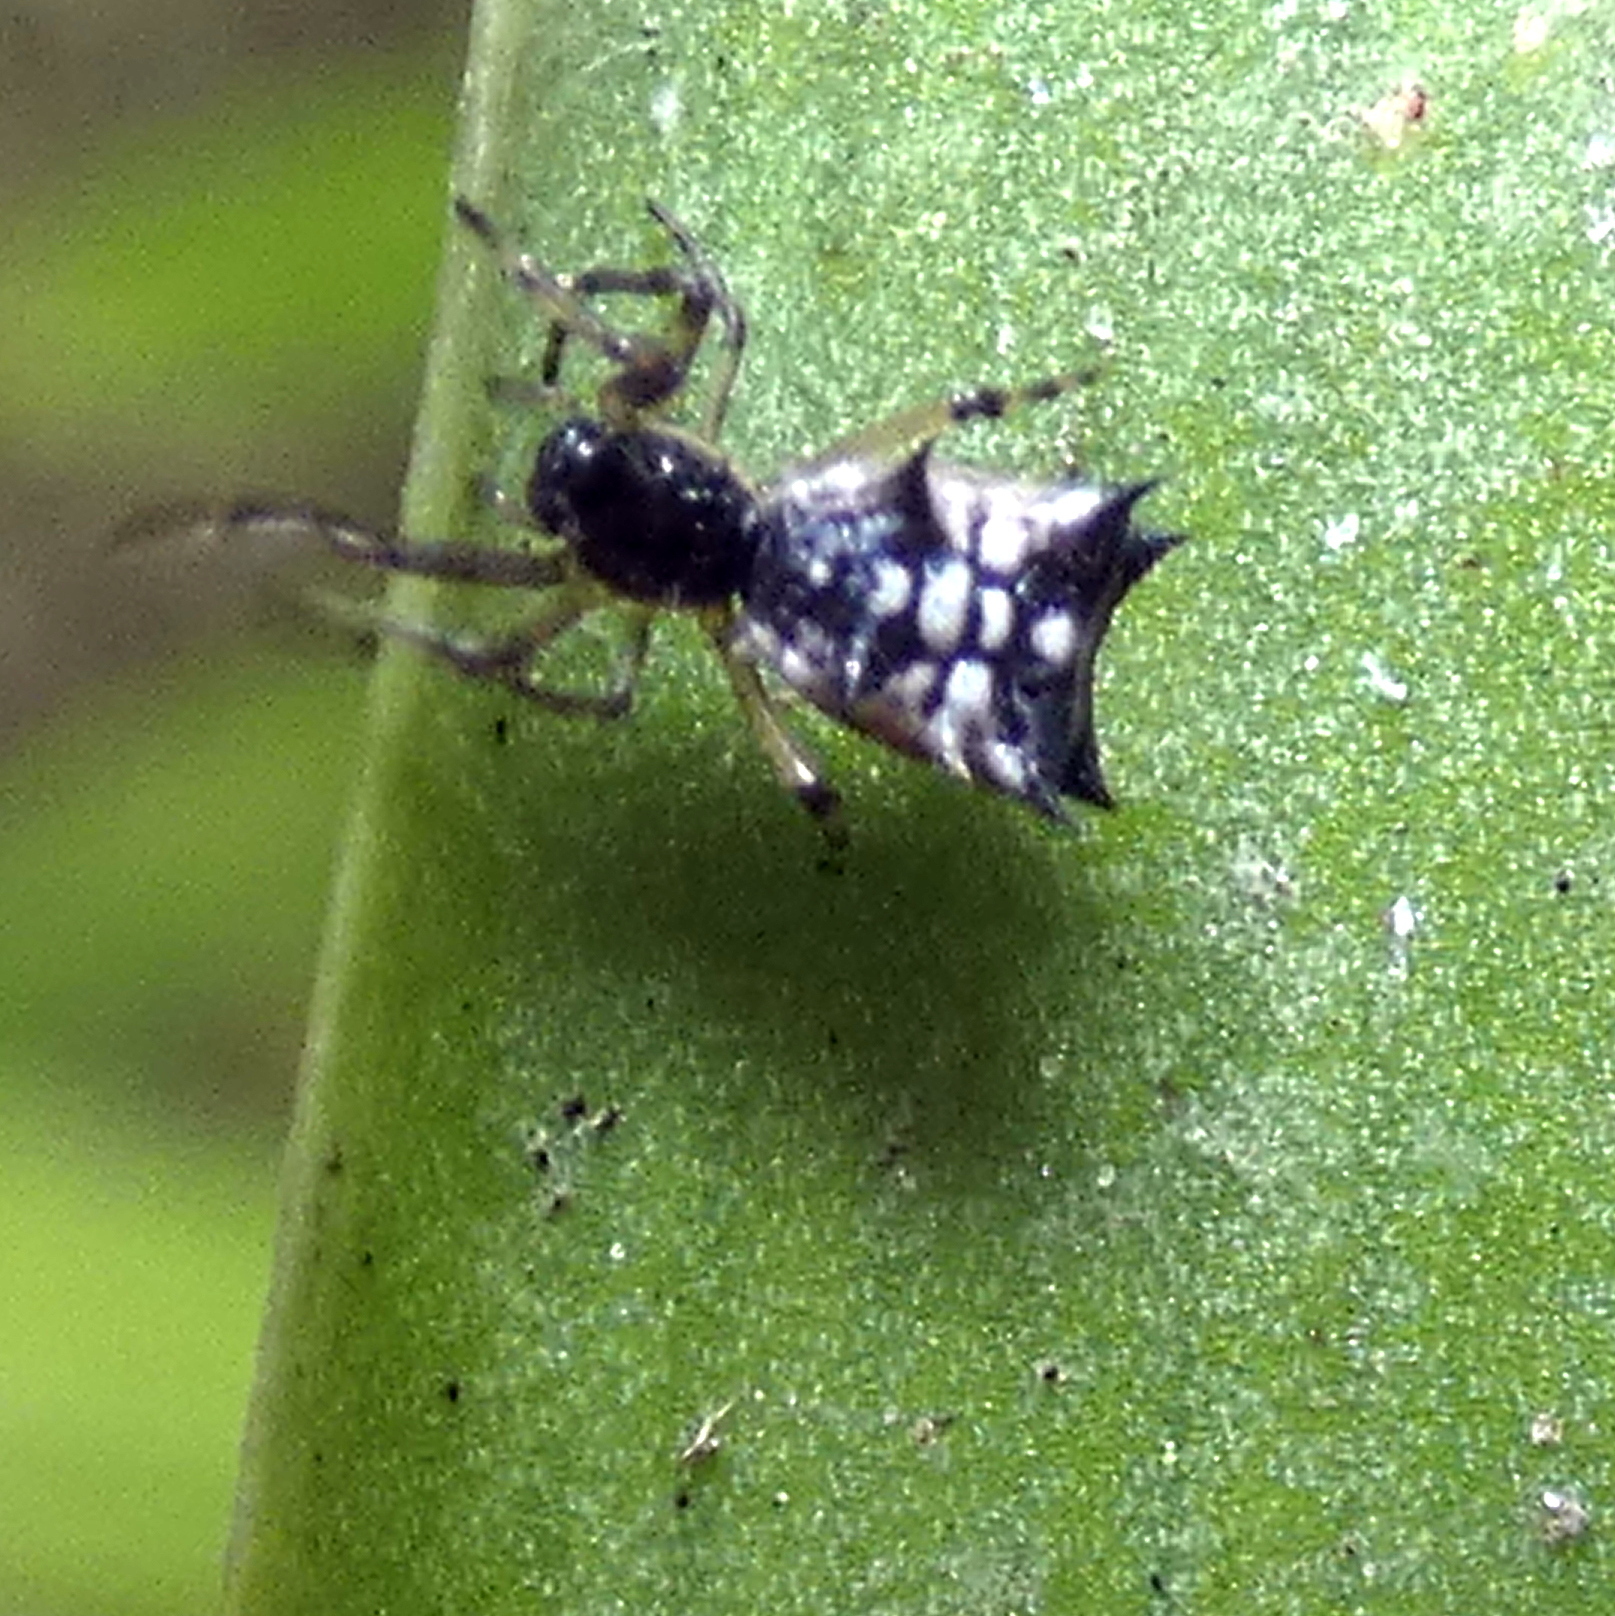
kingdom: Animalia
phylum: Arthropoda
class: Arachnida
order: Araneae
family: Araneidae
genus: Micrathena
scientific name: Micrathena picta
